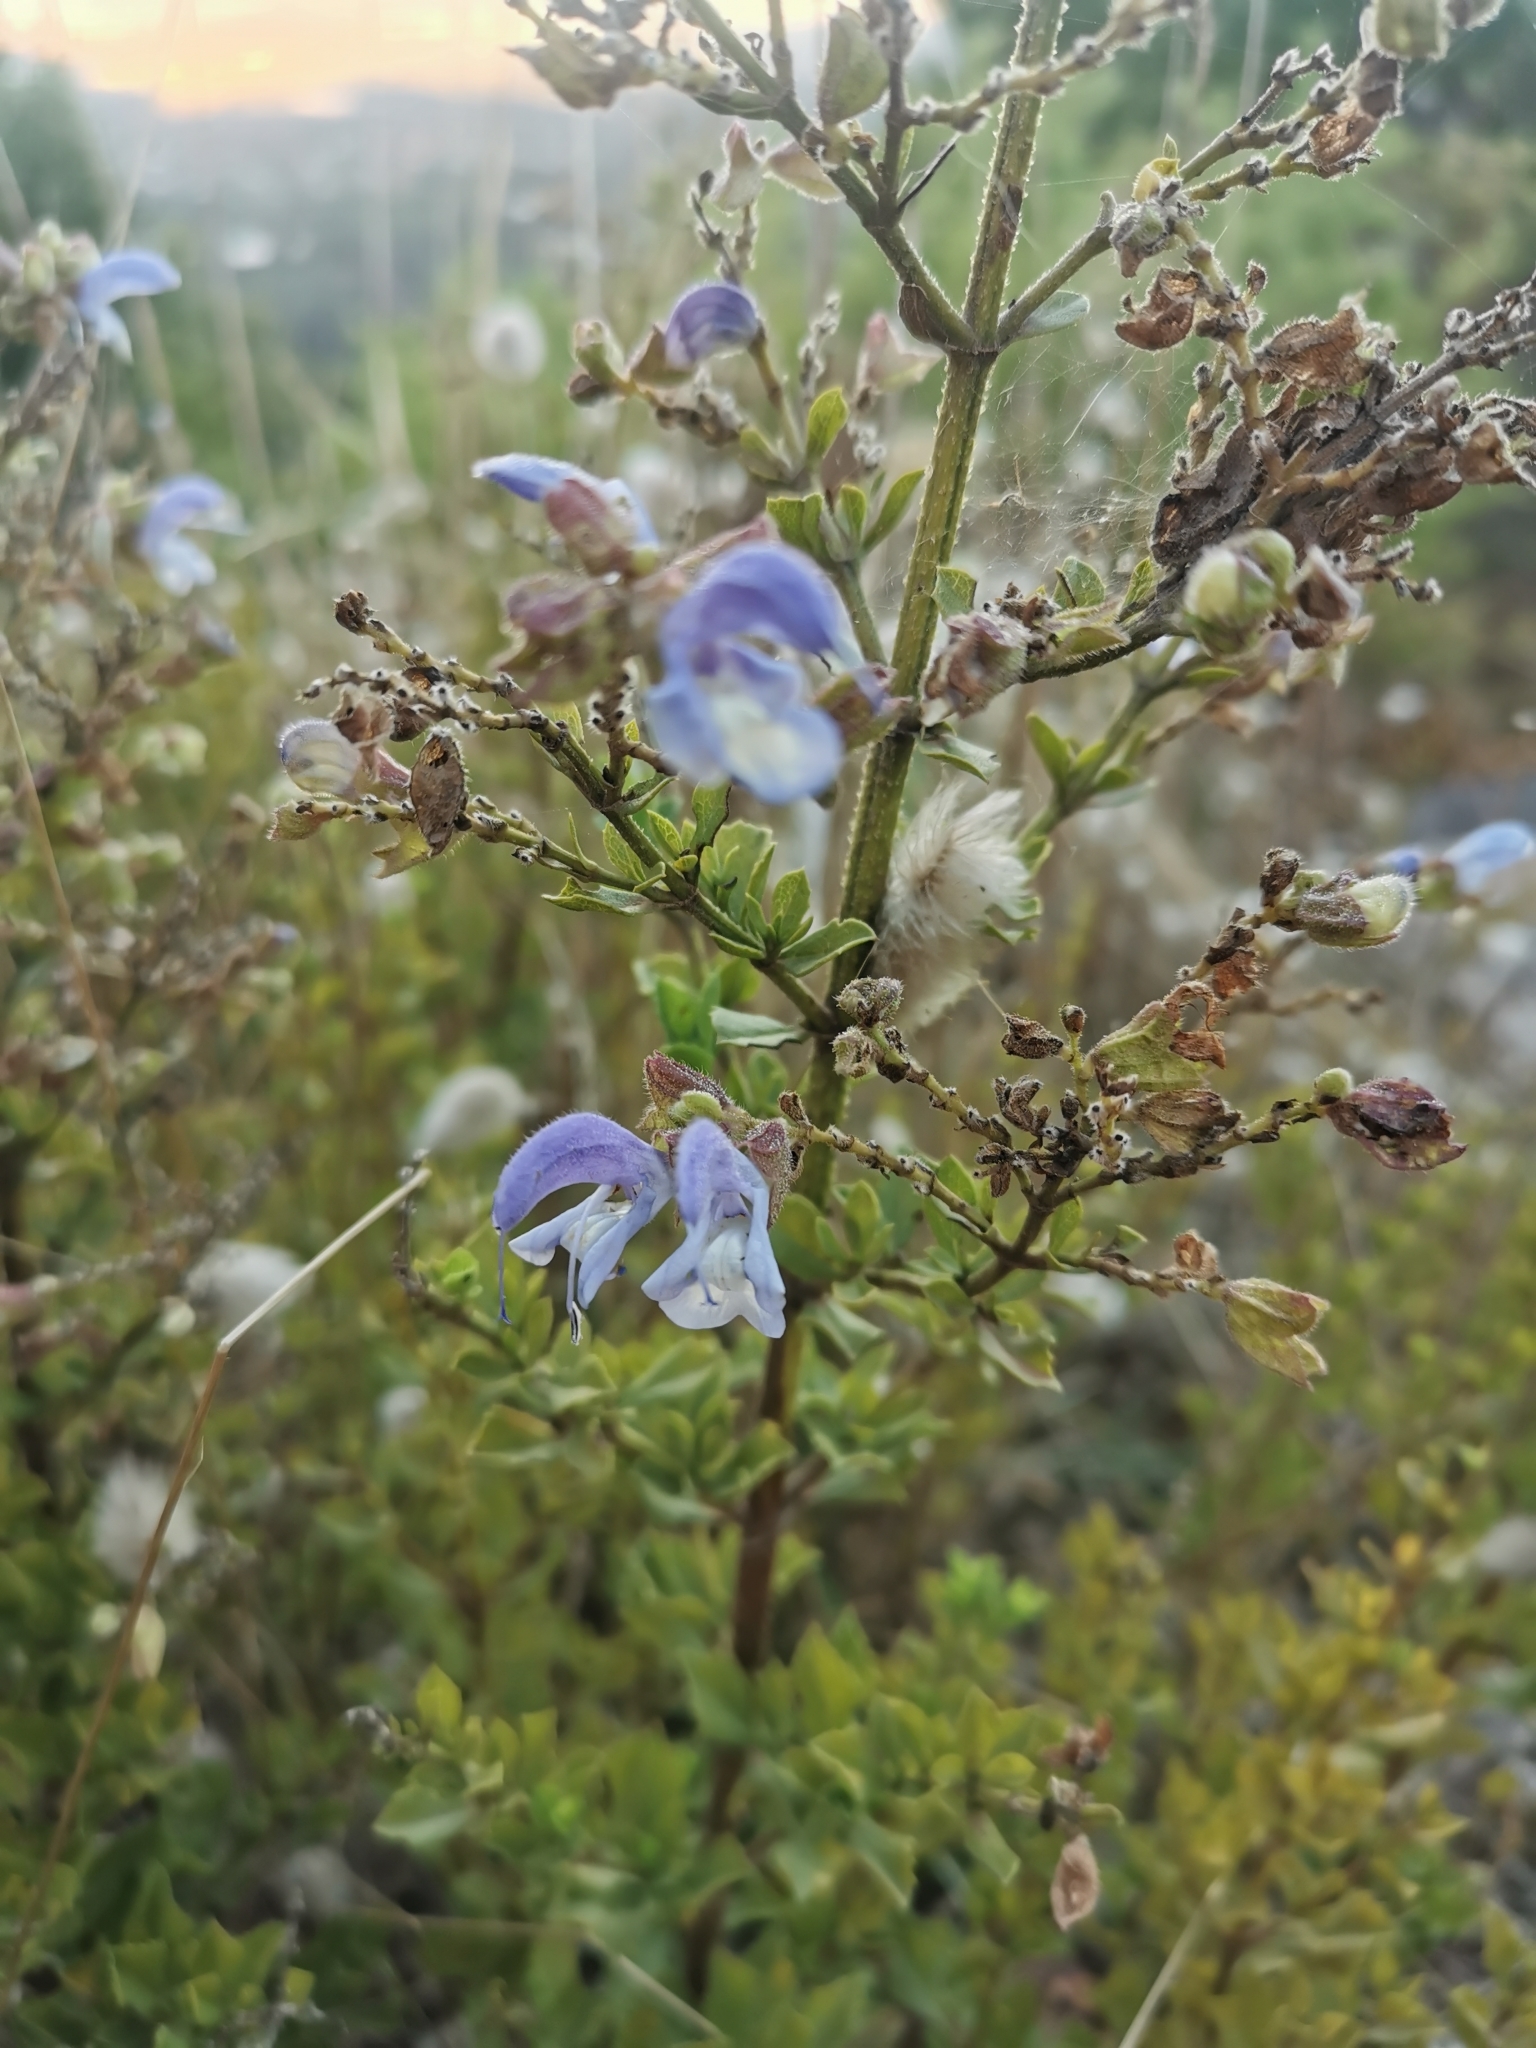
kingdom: Plantae
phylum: Tracheophyta
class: Magnoliopsida
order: Lamiales
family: Lamiaceae
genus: Salvia
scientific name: Salvia chamelaeagnea
